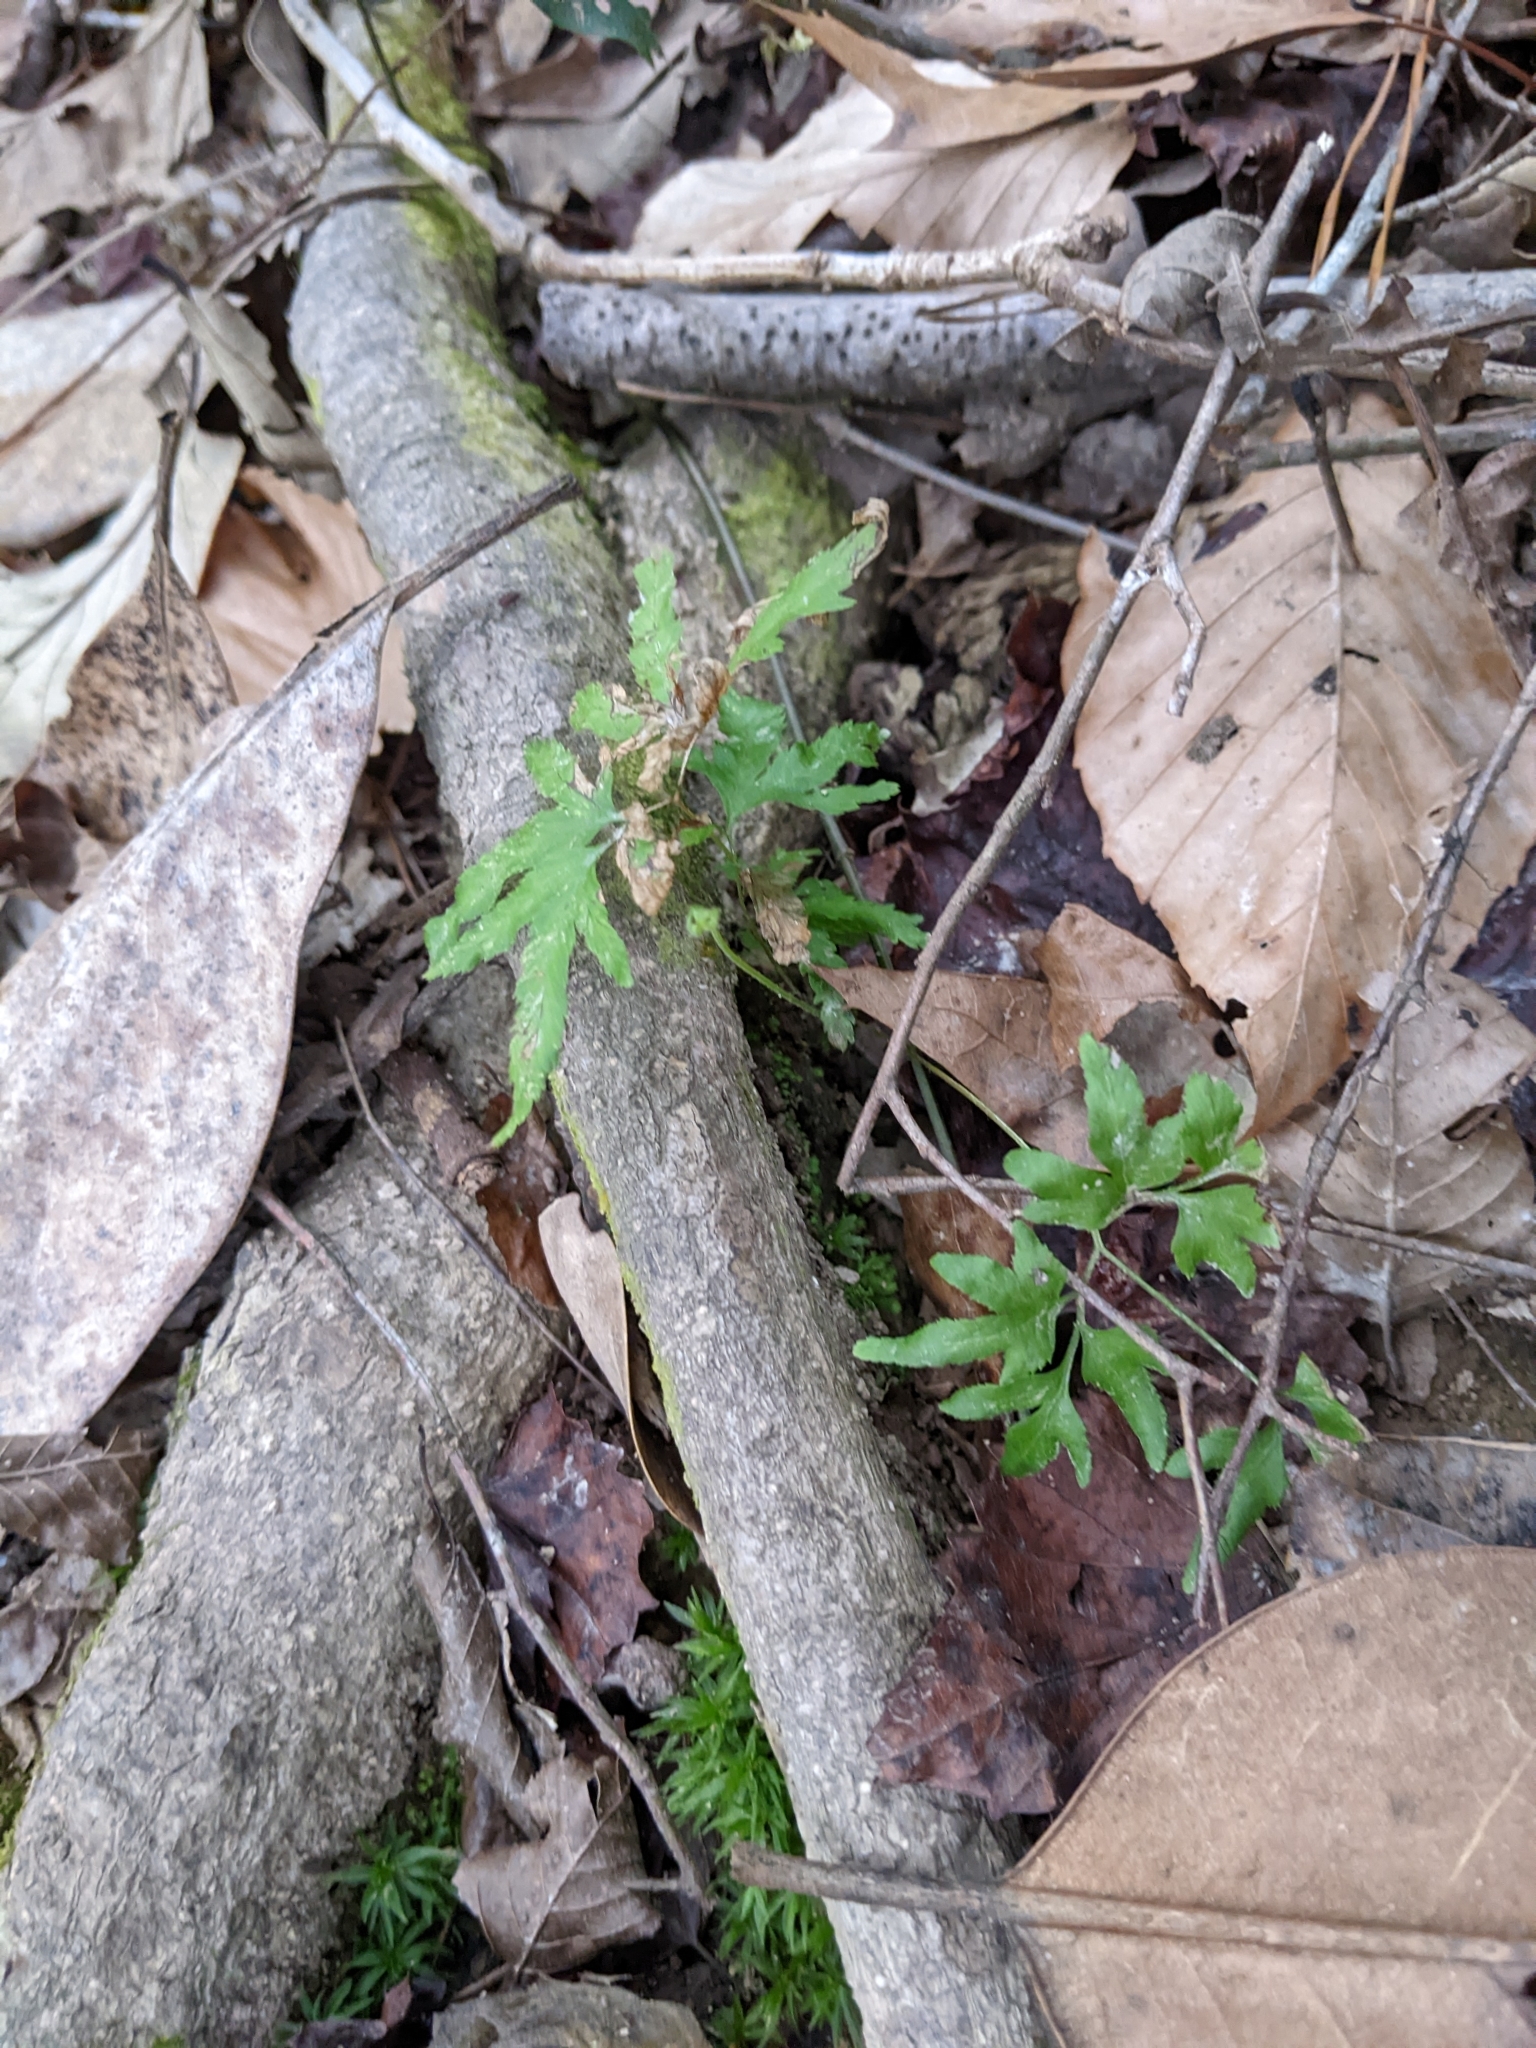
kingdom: Plantae
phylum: Tracheophyta
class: Polypodiopsida
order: Schizaeales
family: Lygodiaceae
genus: Lygodium
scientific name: Lygodium japonicum
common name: Japanese climbing fern
